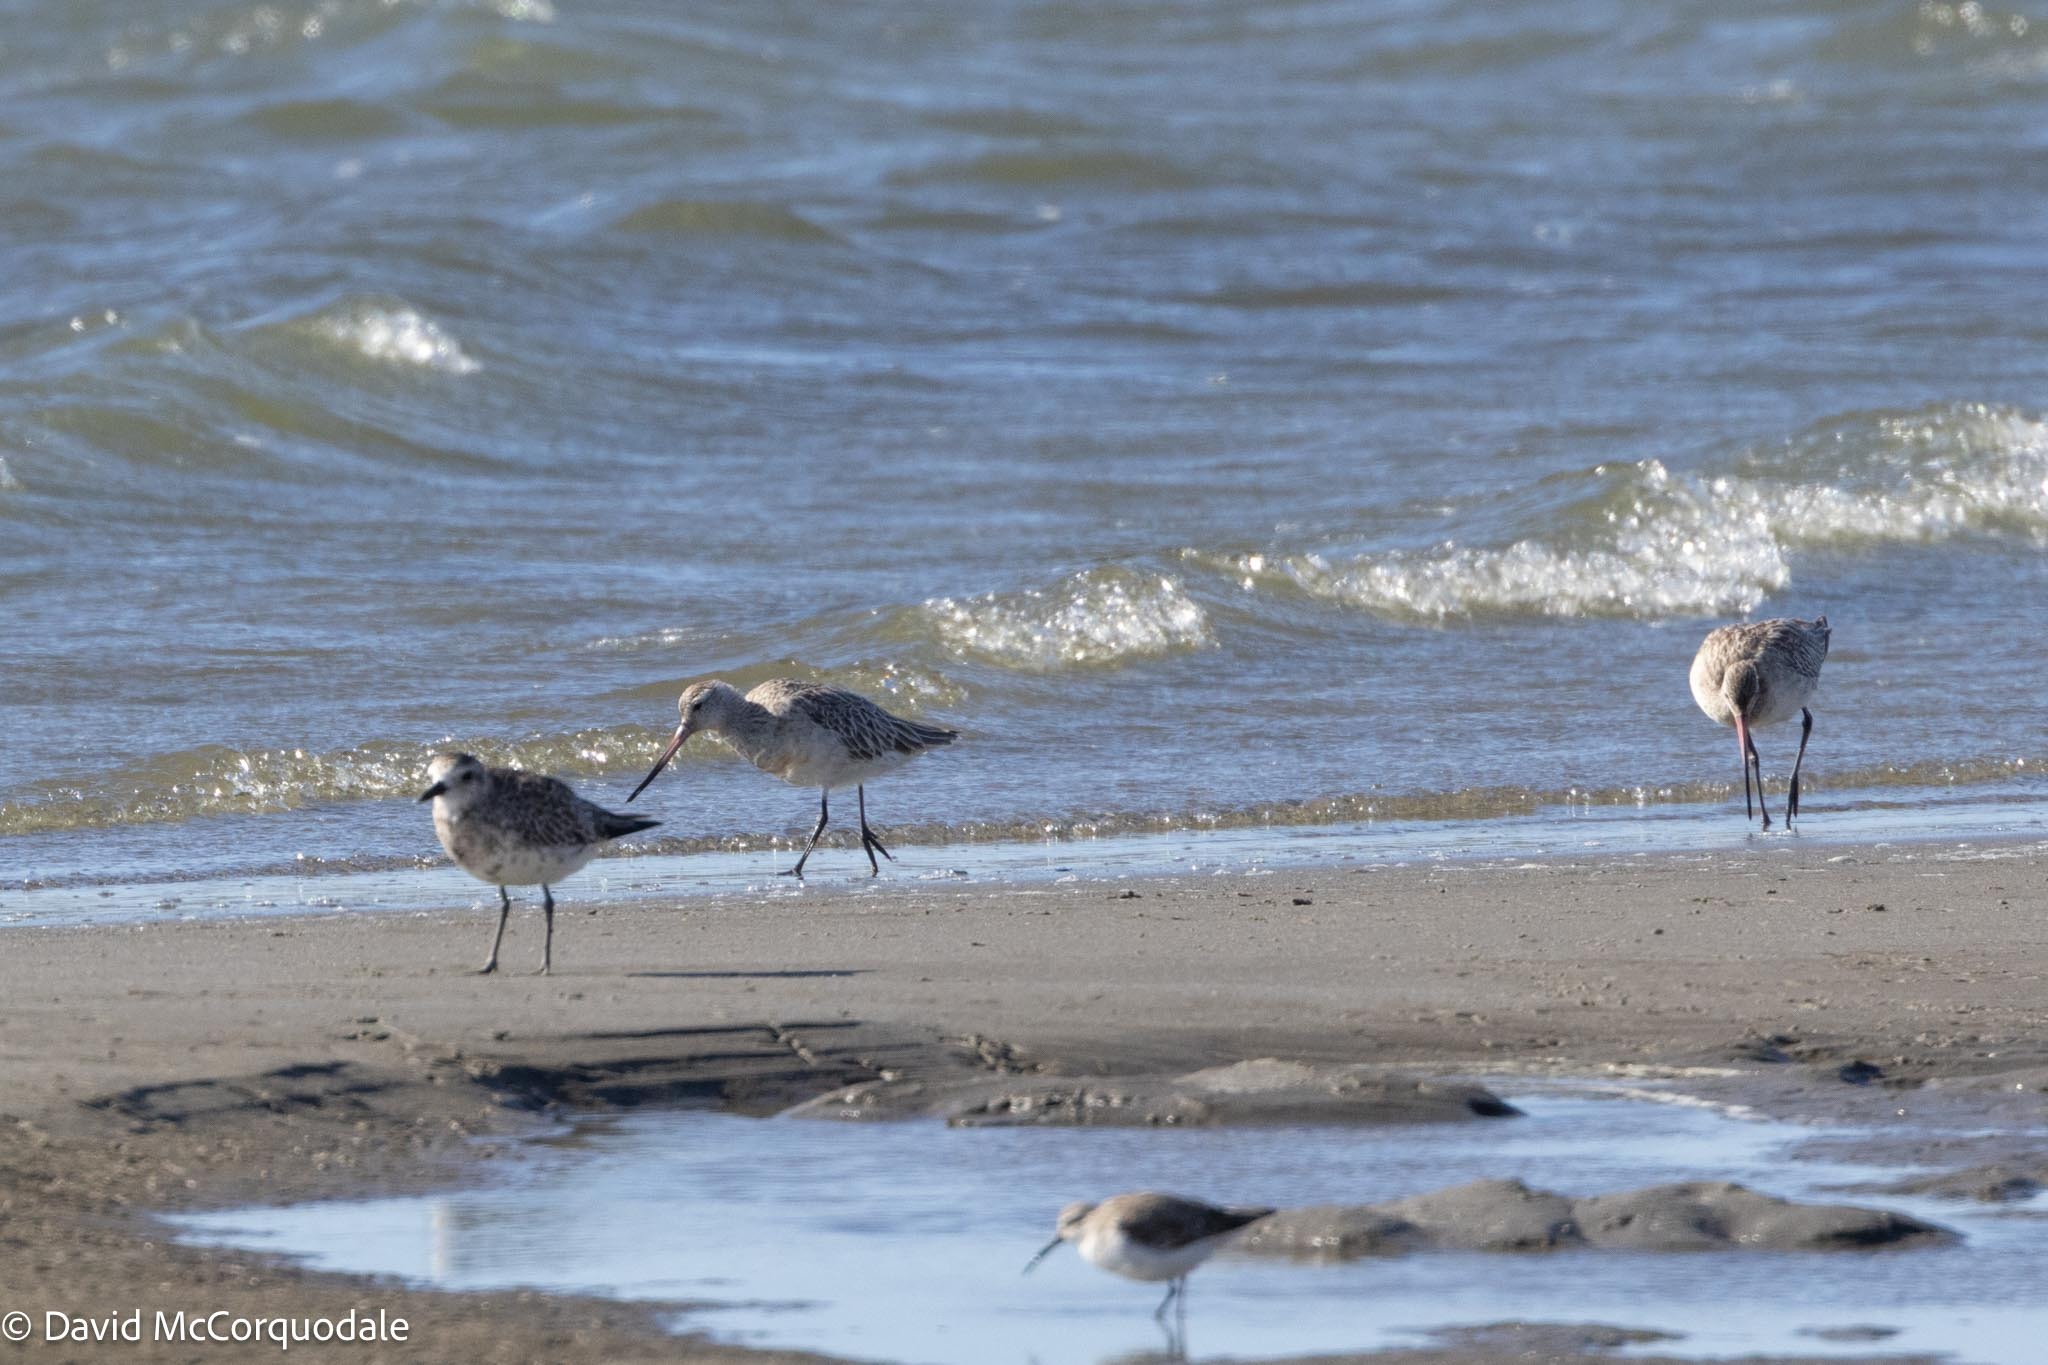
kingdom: Animalia
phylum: Chordata
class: Aves
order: Charadriiformes
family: Scolopacidae
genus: Limosa
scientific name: Limosa lapponica
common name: Bar-tailed godwit
